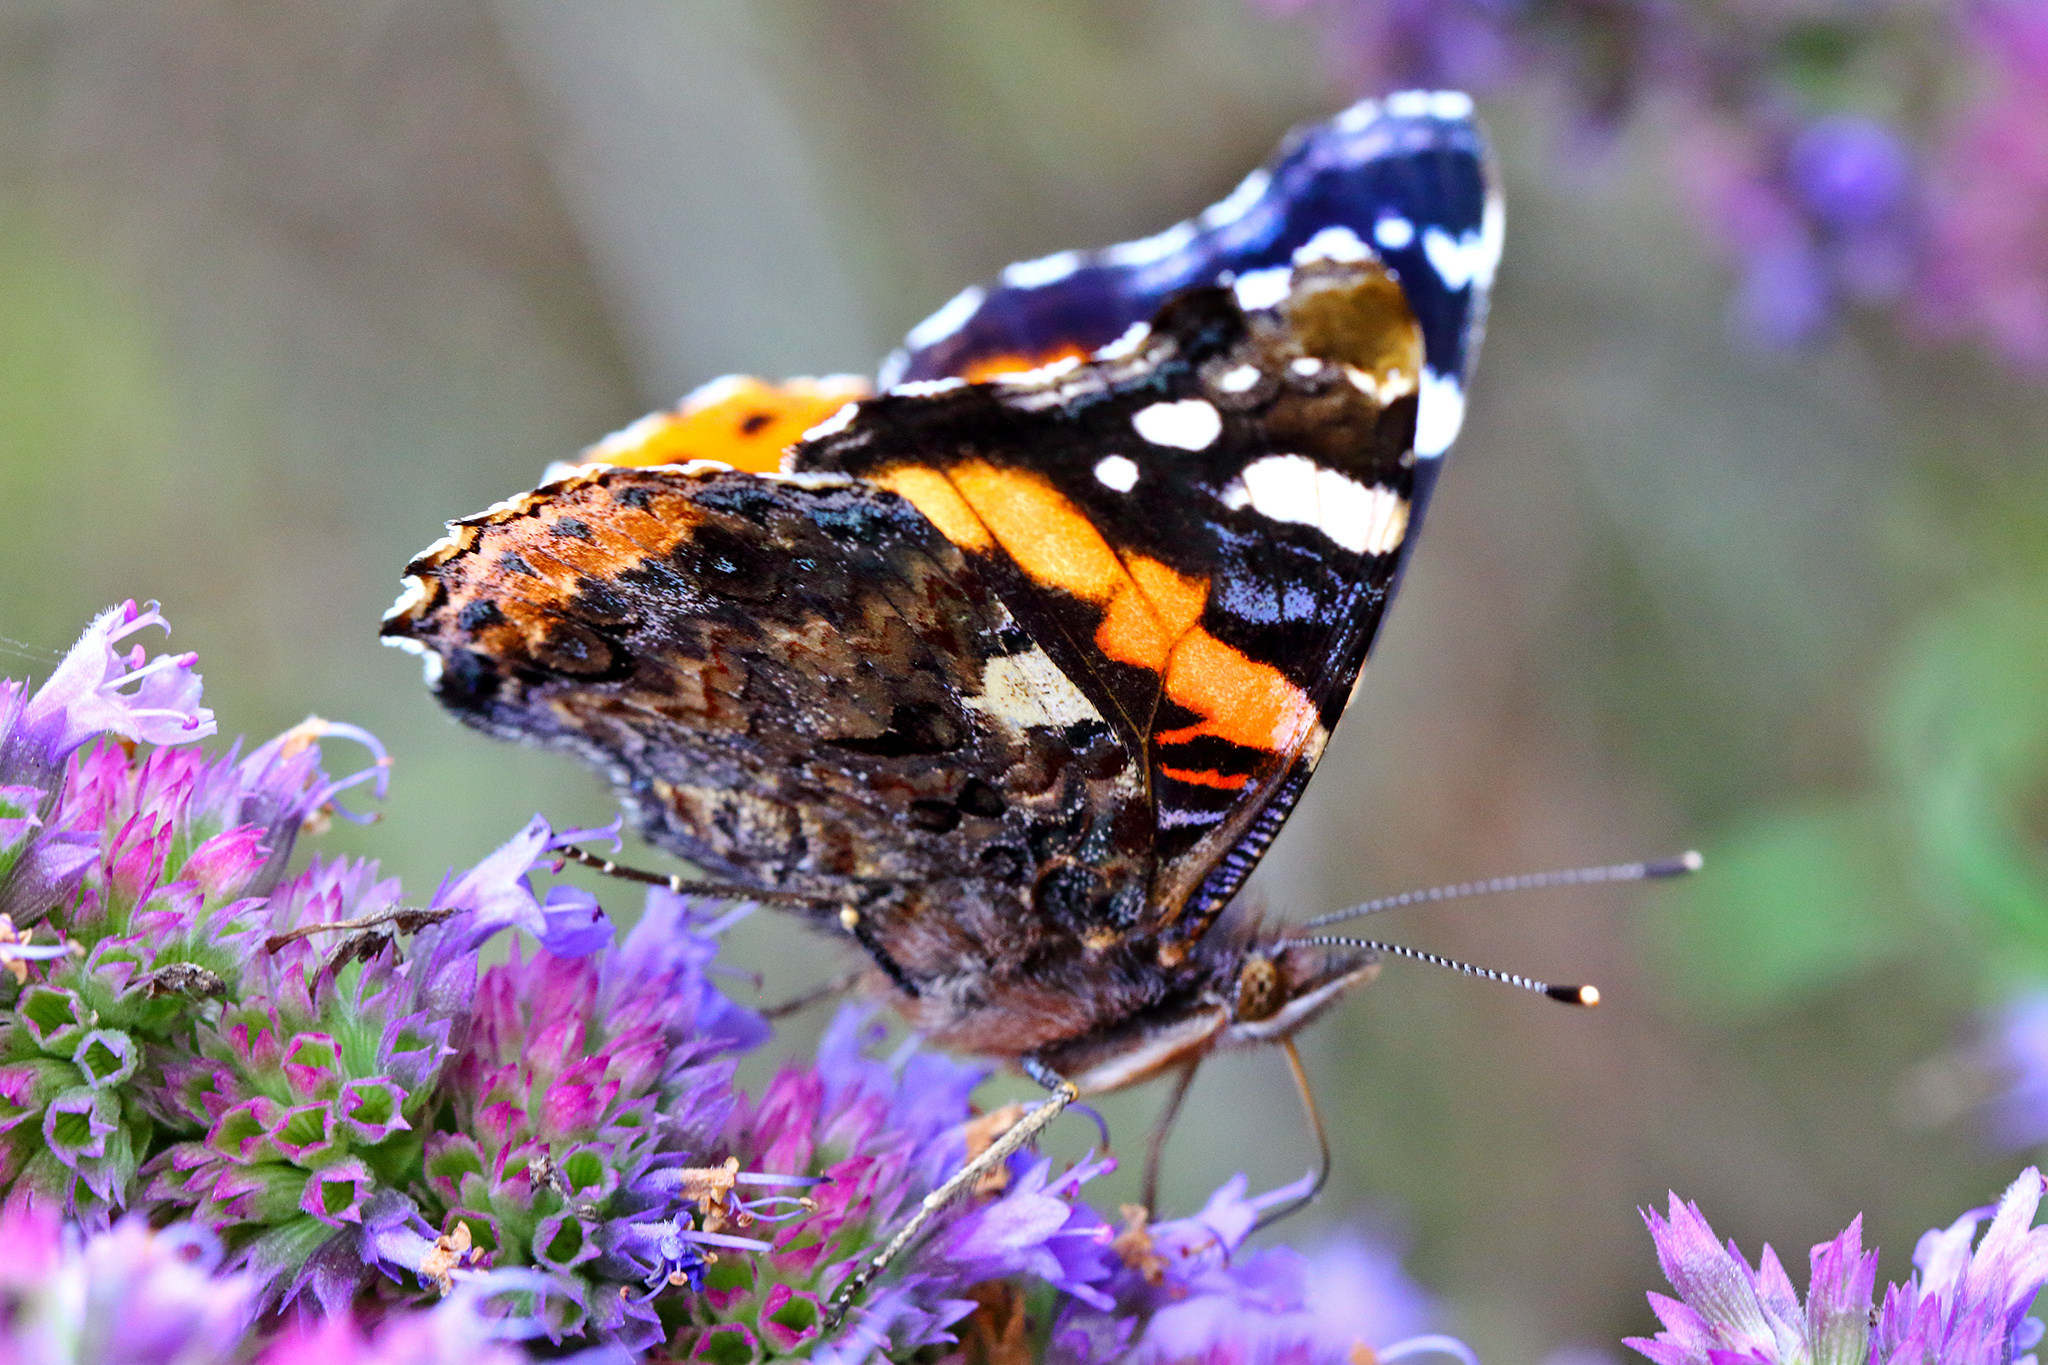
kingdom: Animalia
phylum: Arthropoda
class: Insecta
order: Lepidoptera
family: Nymphalidae
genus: Vanessa
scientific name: Vanessa atalanta
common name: Red admiral
